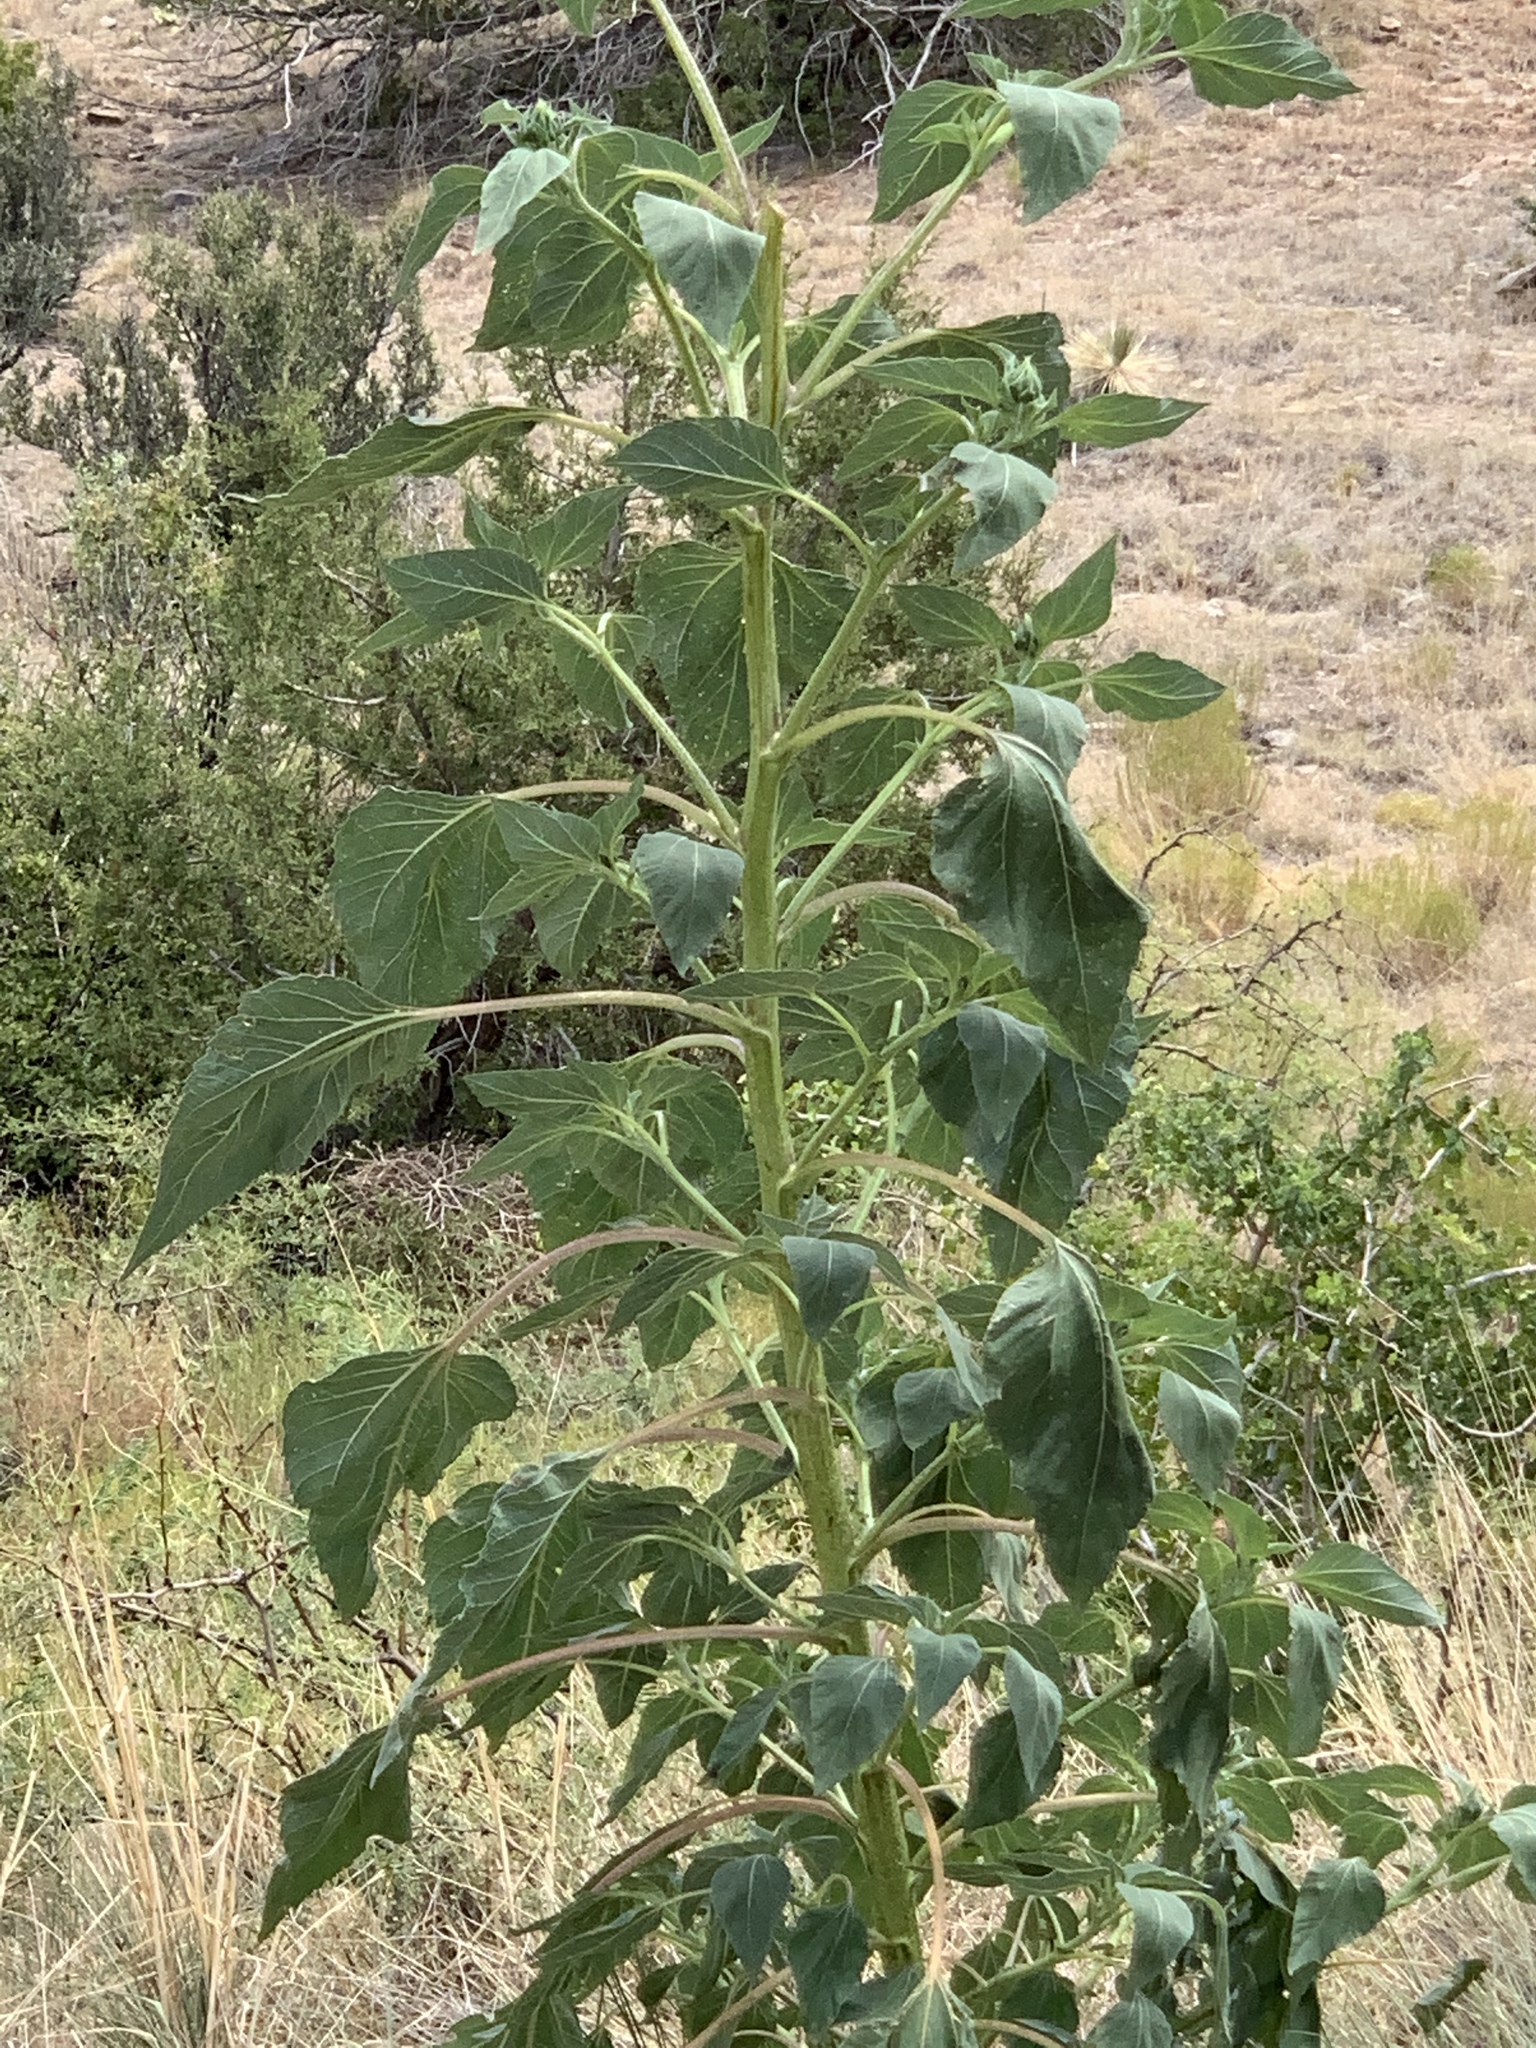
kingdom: Plantae
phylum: Tracheophyta
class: Magnoliopsida
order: Asterales
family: Asteraceae
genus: Helianthus
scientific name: Helianthus annuus
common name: Sunflower
